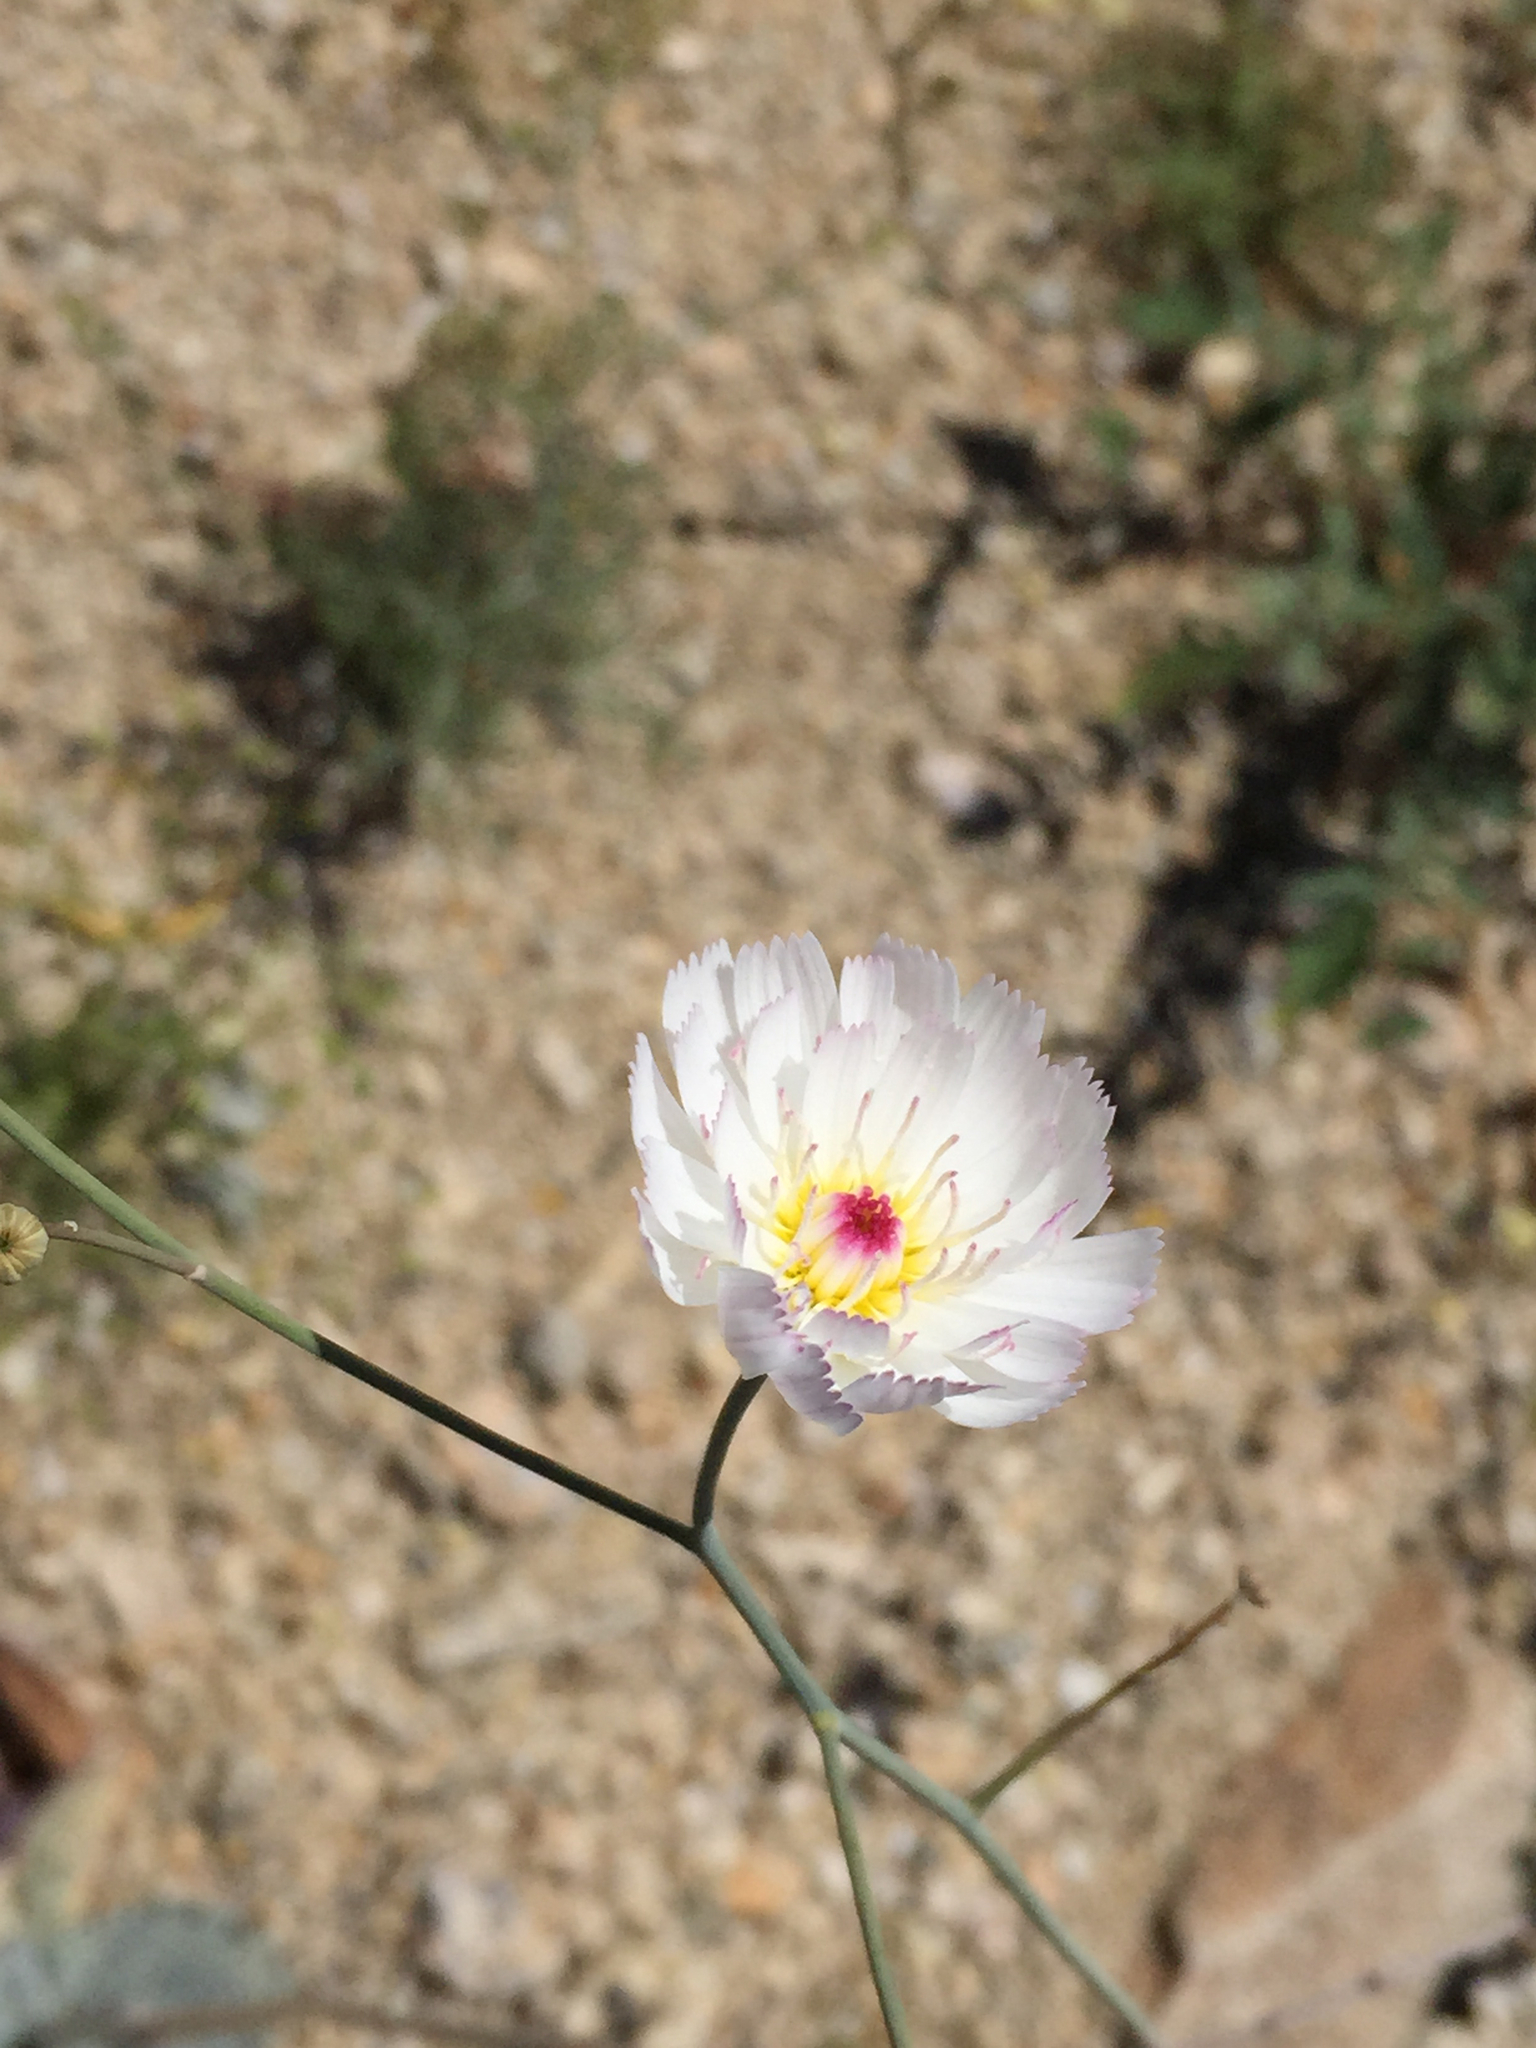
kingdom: Plantae
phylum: Tracheophyta
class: Magnoliopsida
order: Asterales
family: Asteraceae
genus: Atrichoseris
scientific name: Atrichoseris platyphylla
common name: Tobaccoweed
